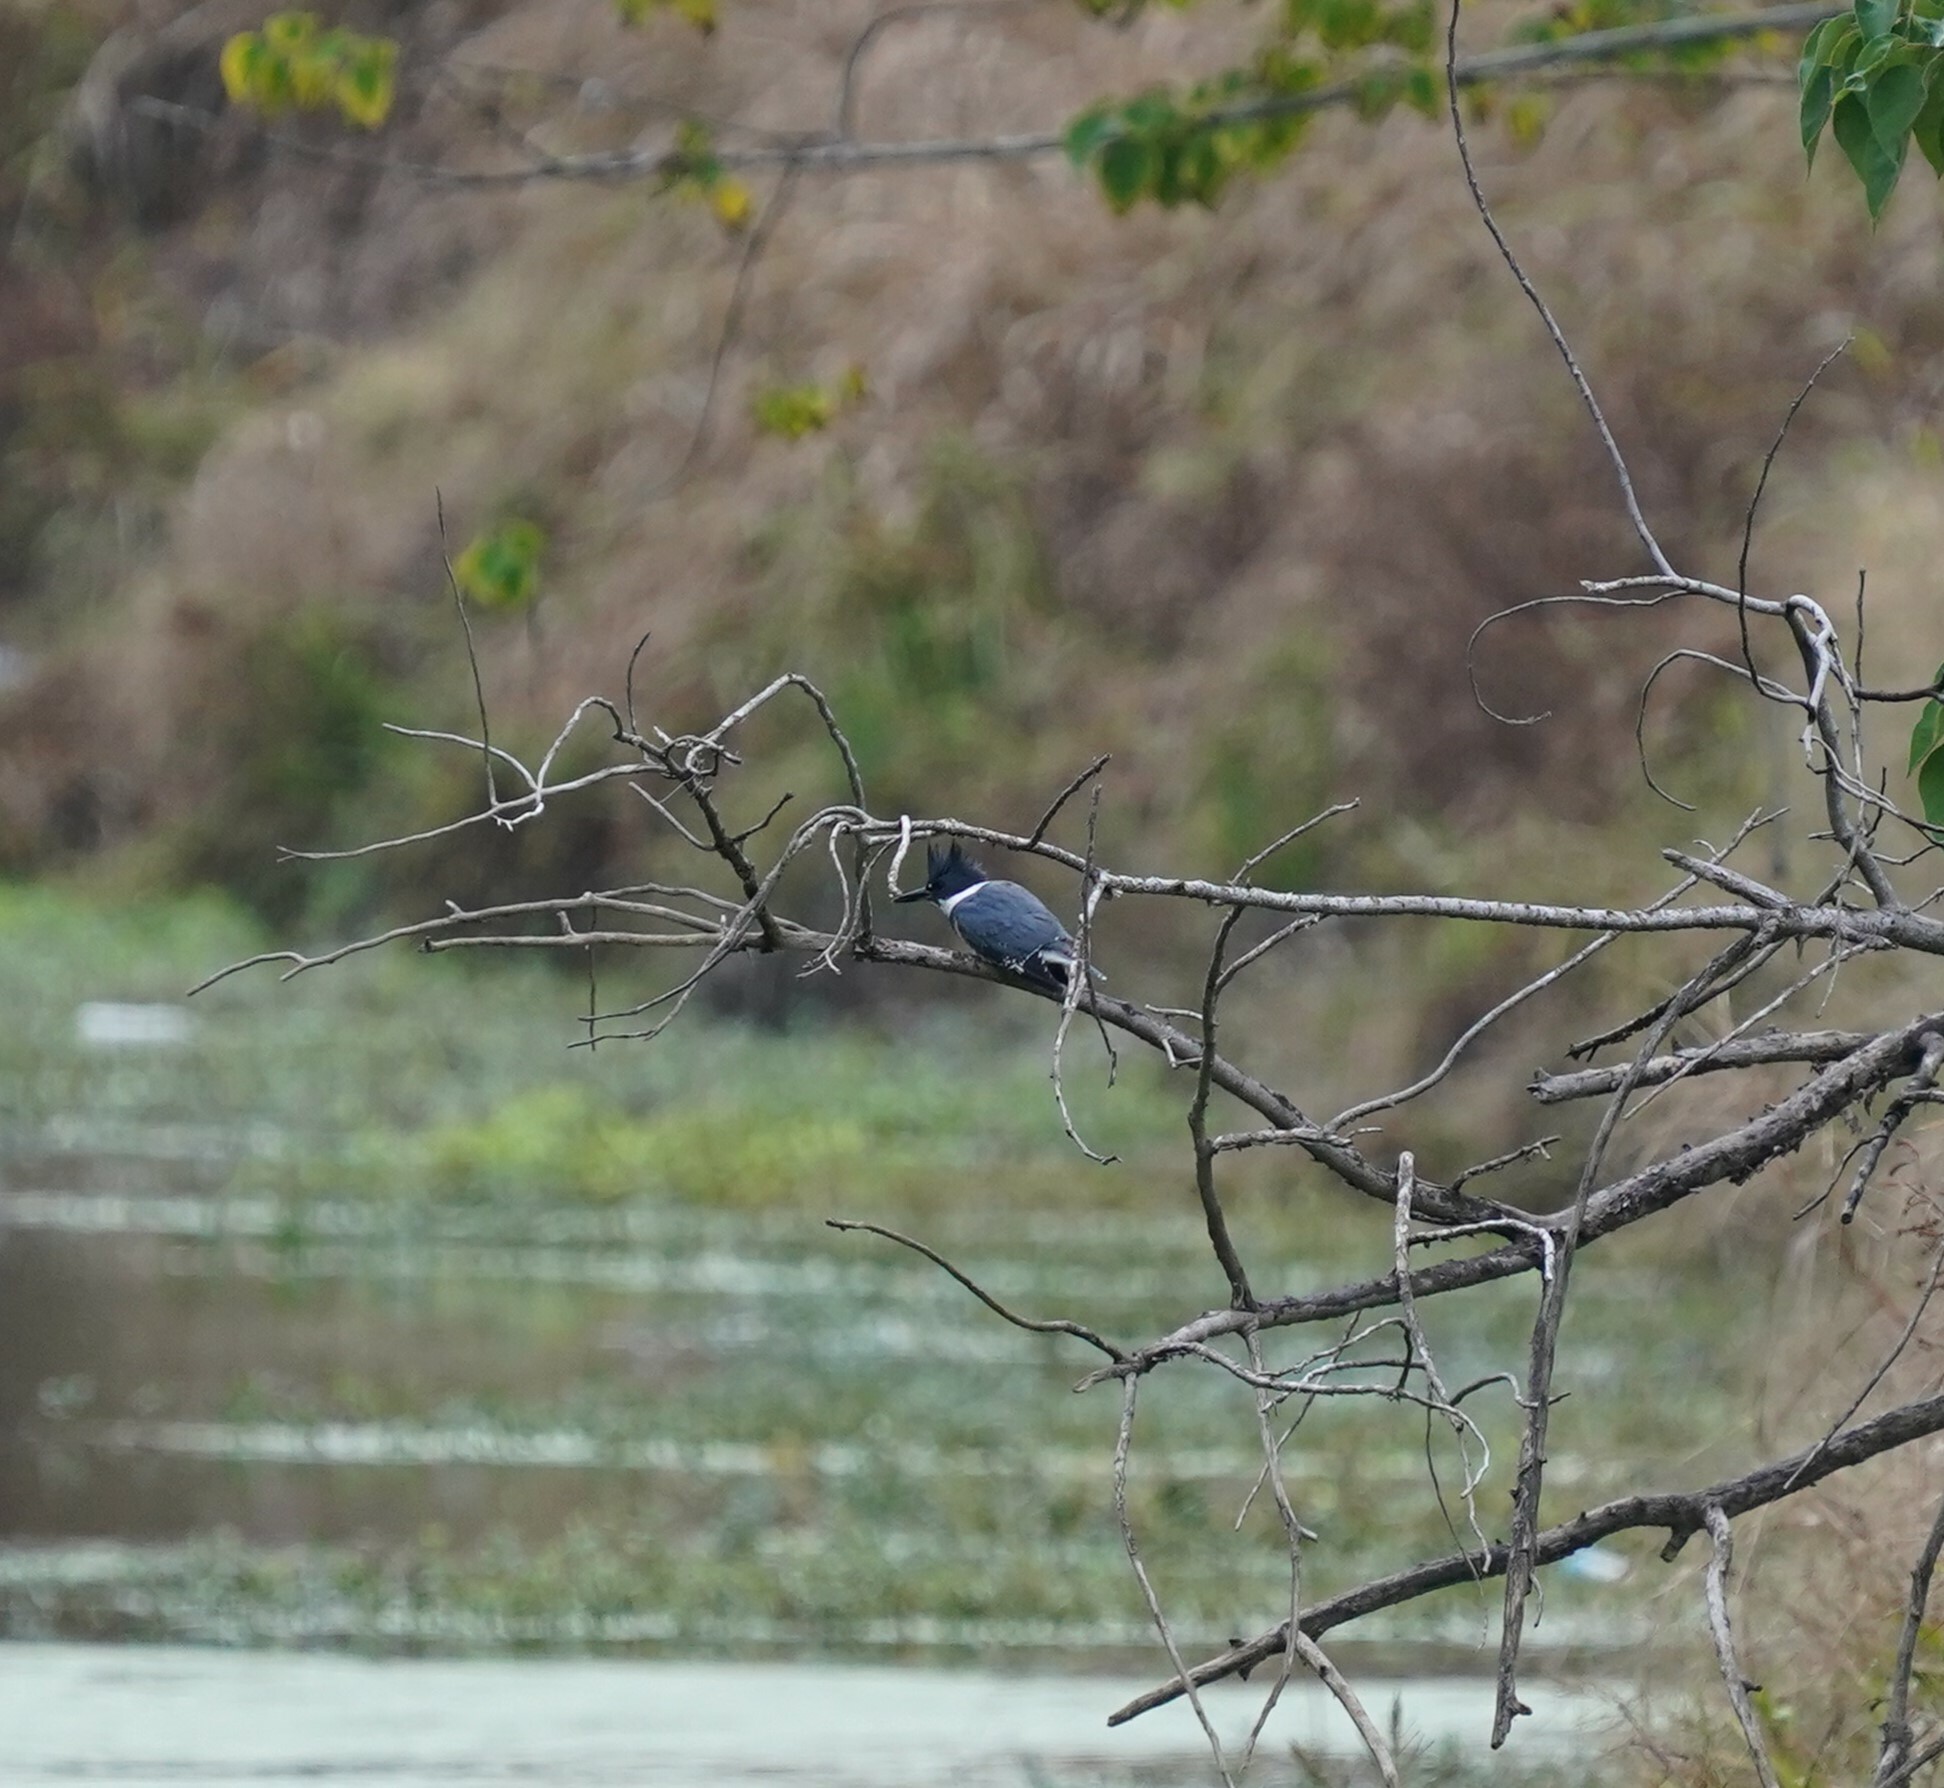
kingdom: Animalia
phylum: Chordata
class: Aves
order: Coraciiformes
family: Alcedinidae
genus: Megaceryle
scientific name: Megaceryle alcyon
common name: Belted kingfisher
